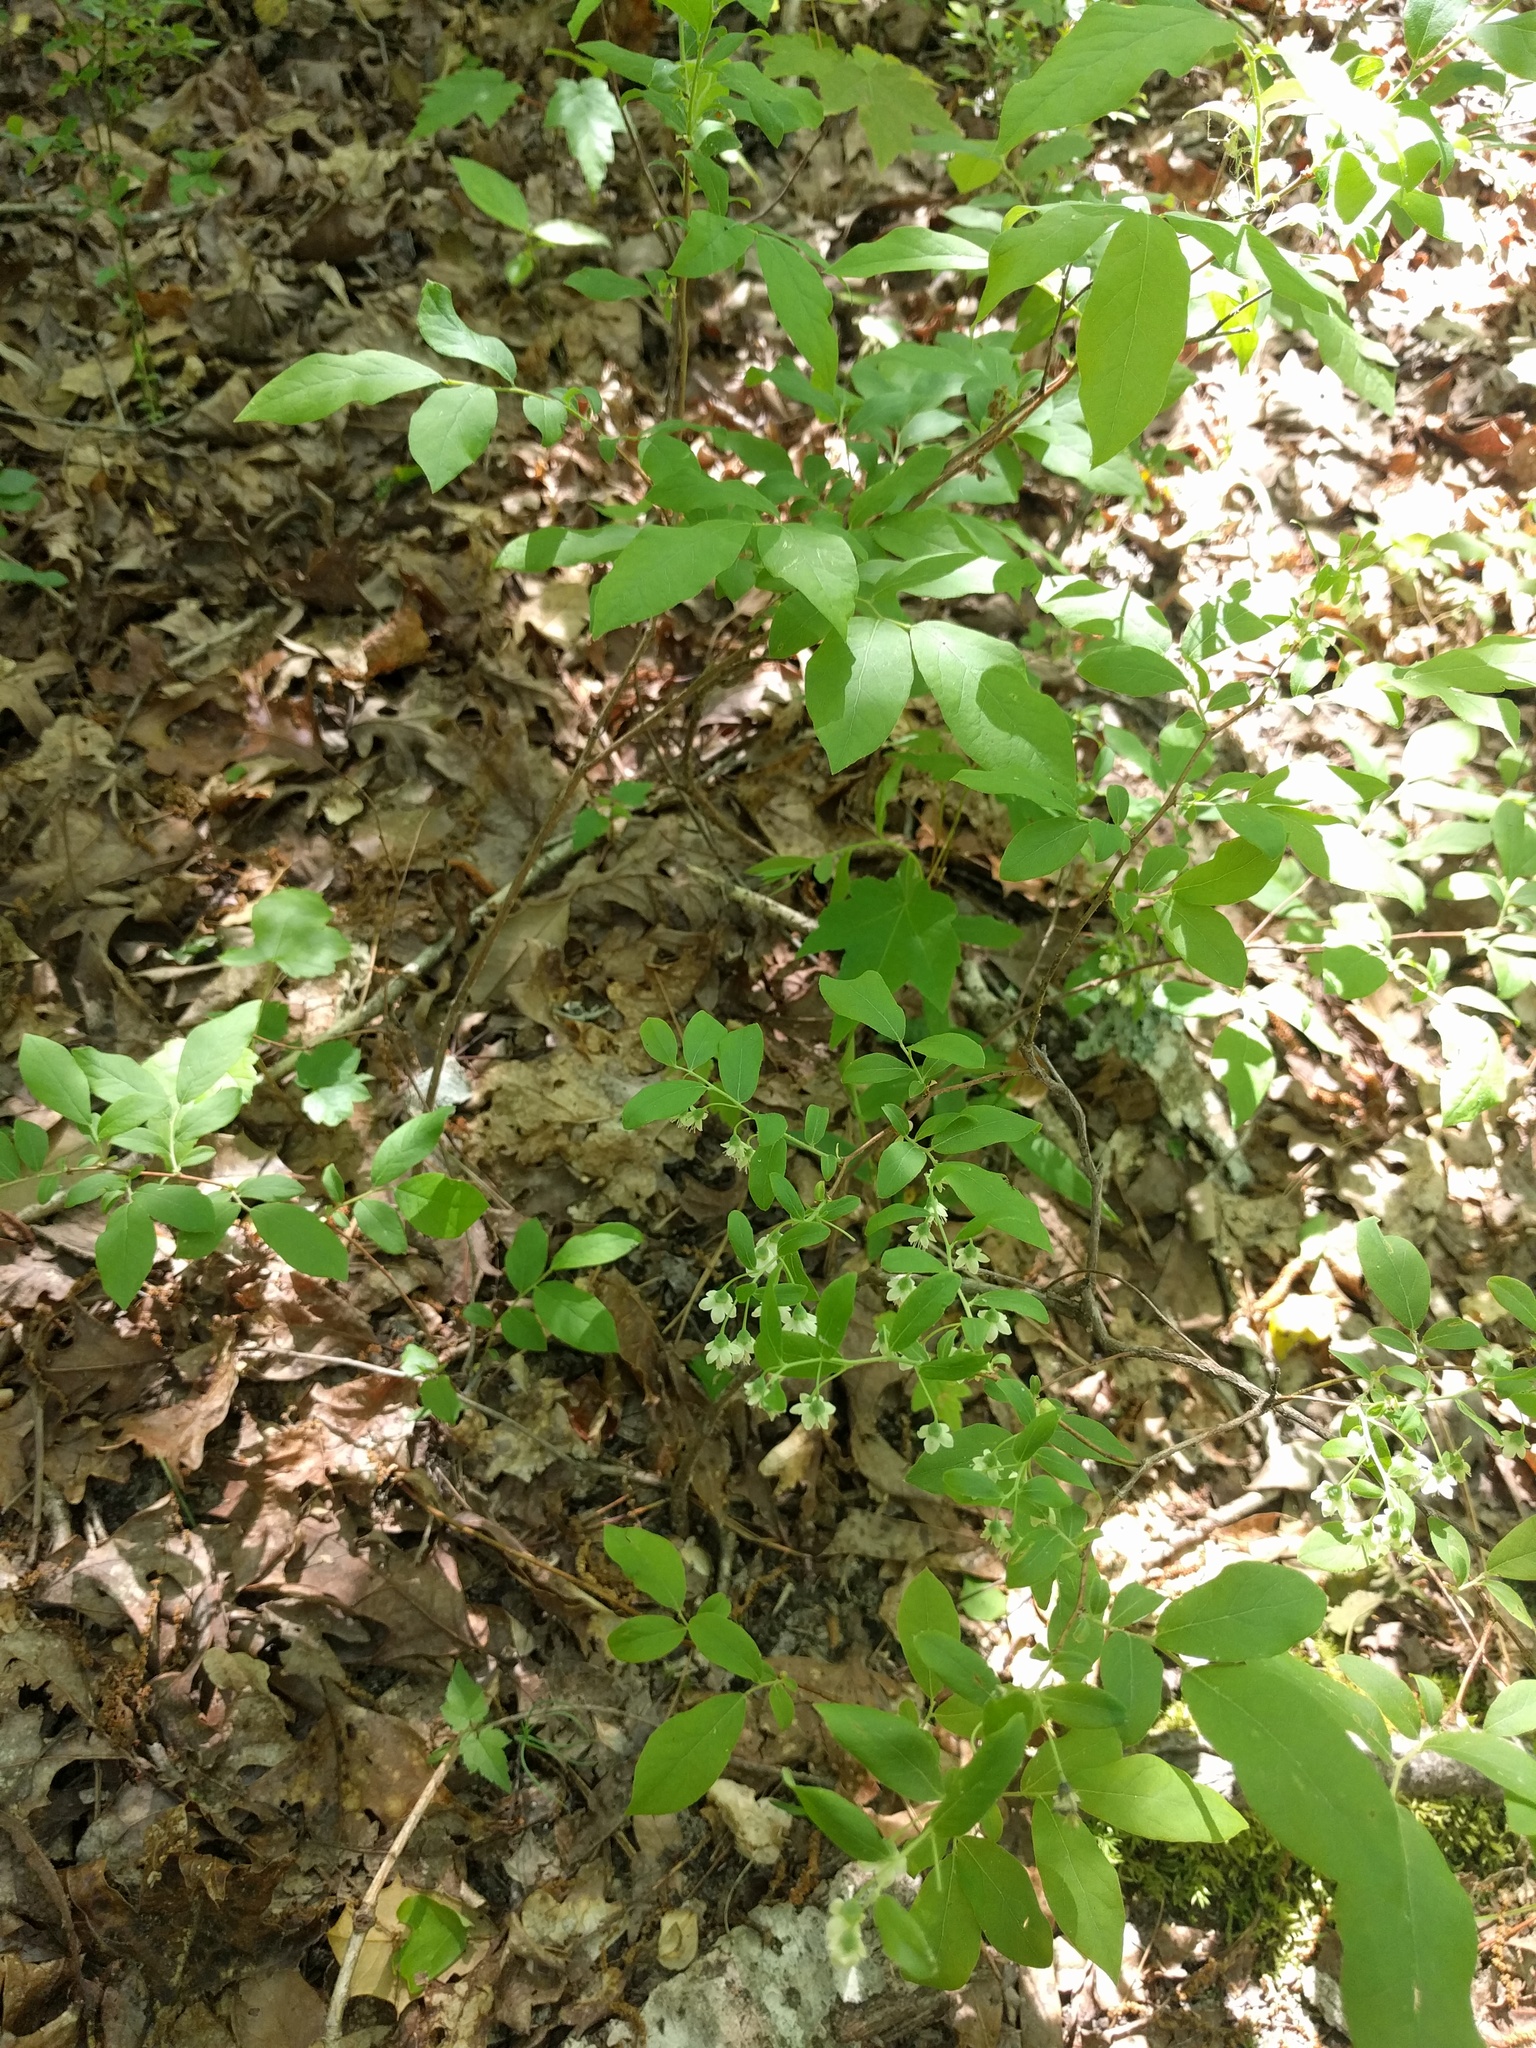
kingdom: Plantae
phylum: Tracheophyta
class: Magnoliopsida
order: Ericales
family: Ericaceae
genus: Vaccinium
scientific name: Vaccinium stamineum
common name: Deerberry
